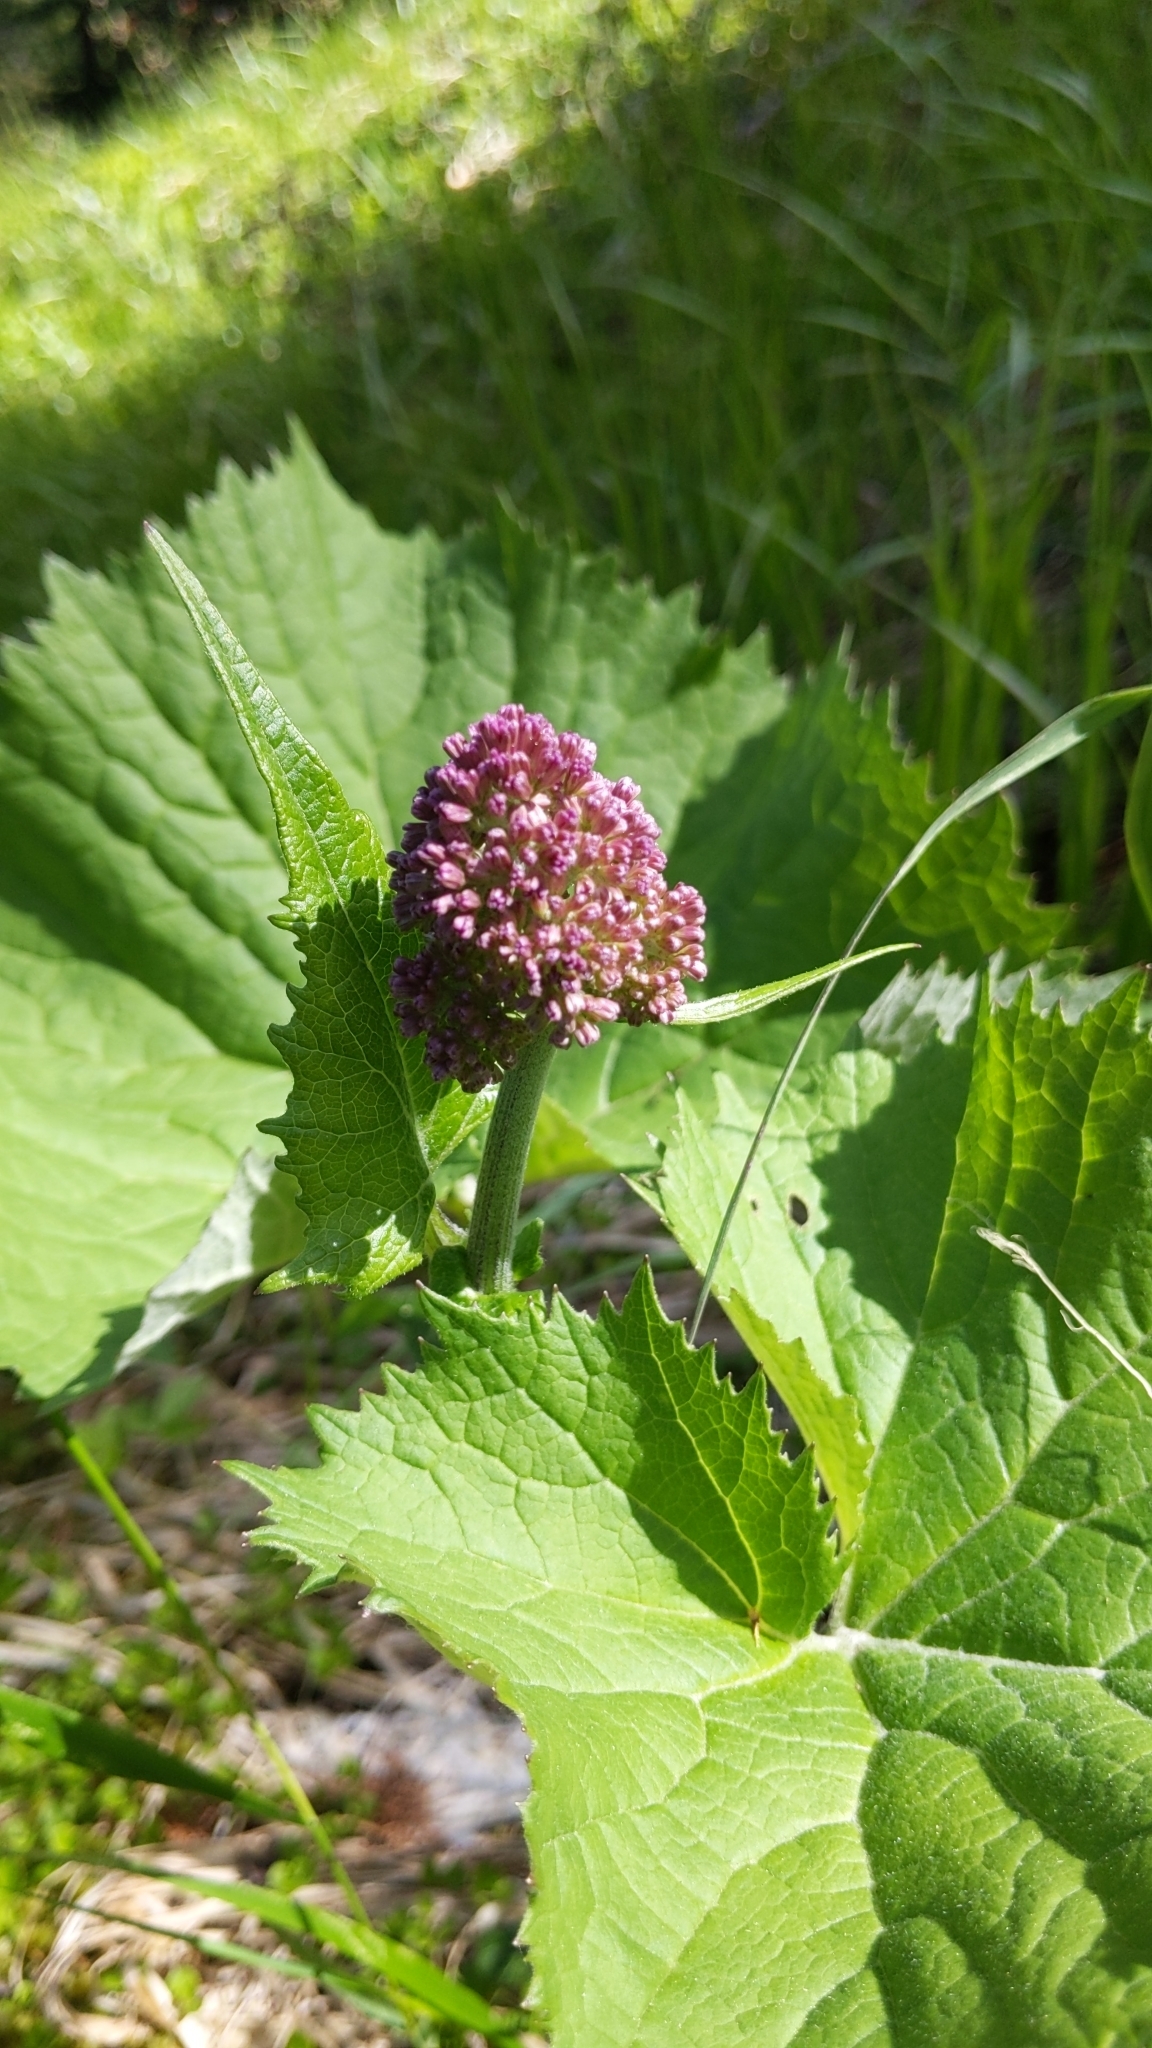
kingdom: Plantae
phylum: Tracheophyta
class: Magnoliopsida
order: Asterales
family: Asteraceae
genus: Adenostyles
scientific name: Adenostyles alliariae
